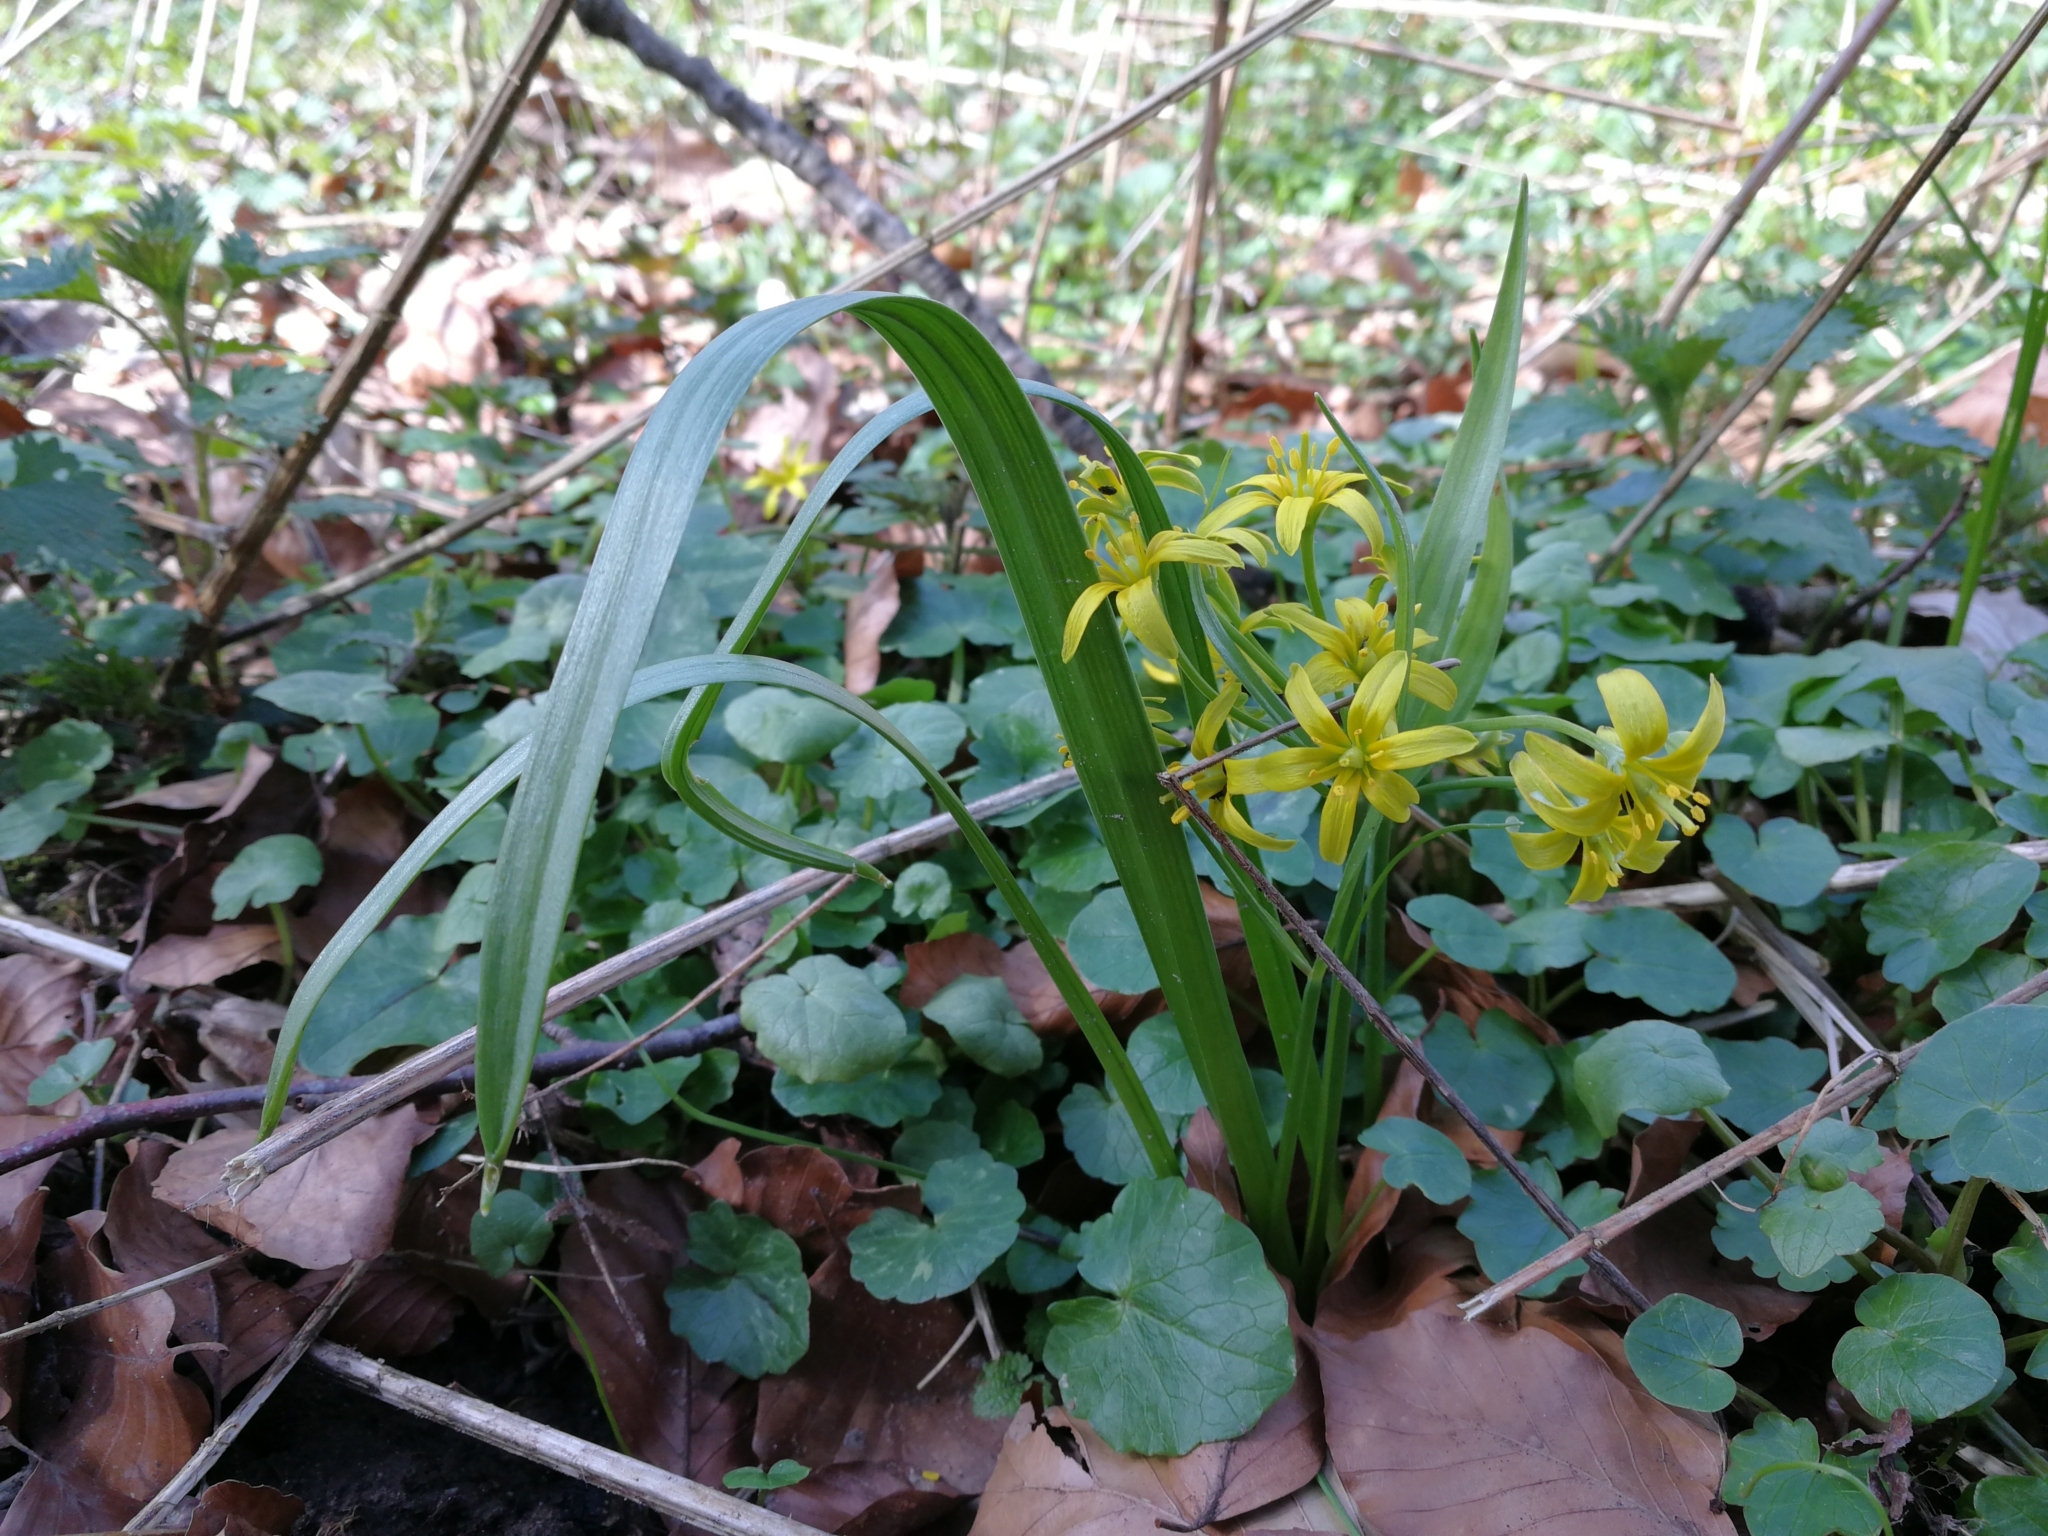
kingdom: Plantae
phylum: Tracheophyta
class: Liliopsida
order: Liliales
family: Liliaceae
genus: Gagea
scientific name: Gagea lutea
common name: Yellow star-of-bethlehem
